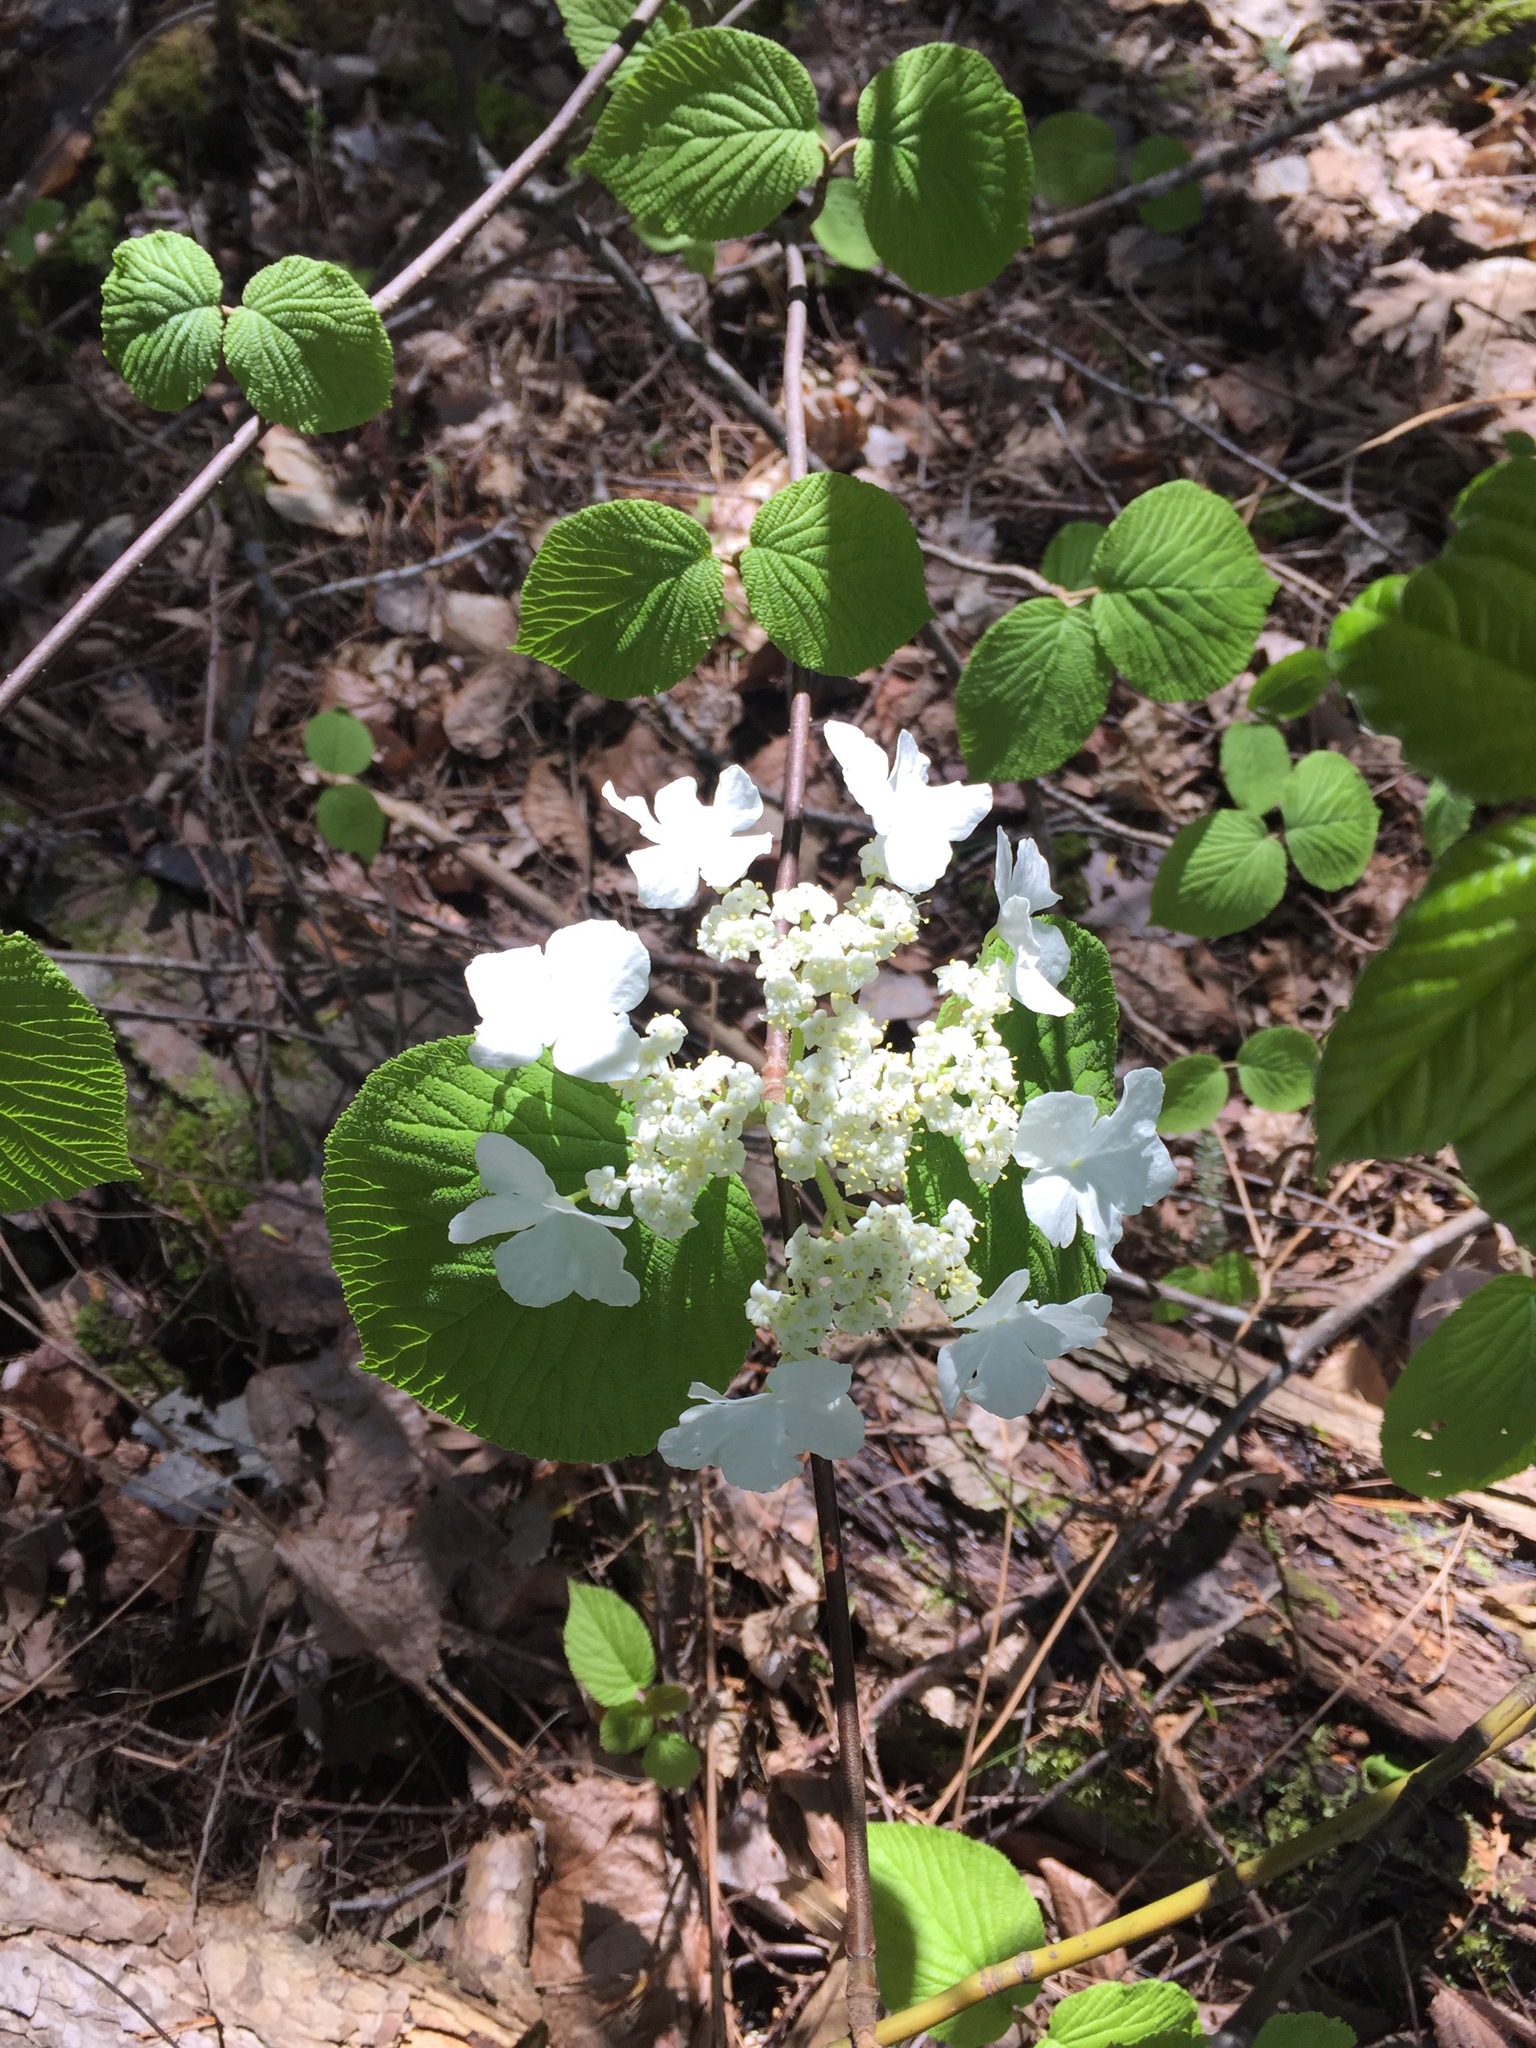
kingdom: Plantae
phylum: Tracheophyta
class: Magnoliopsida
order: Dipsacales
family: Viburnaceae
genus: Viburnum
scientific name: Viburnum lantanoides
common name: Hobblebush
